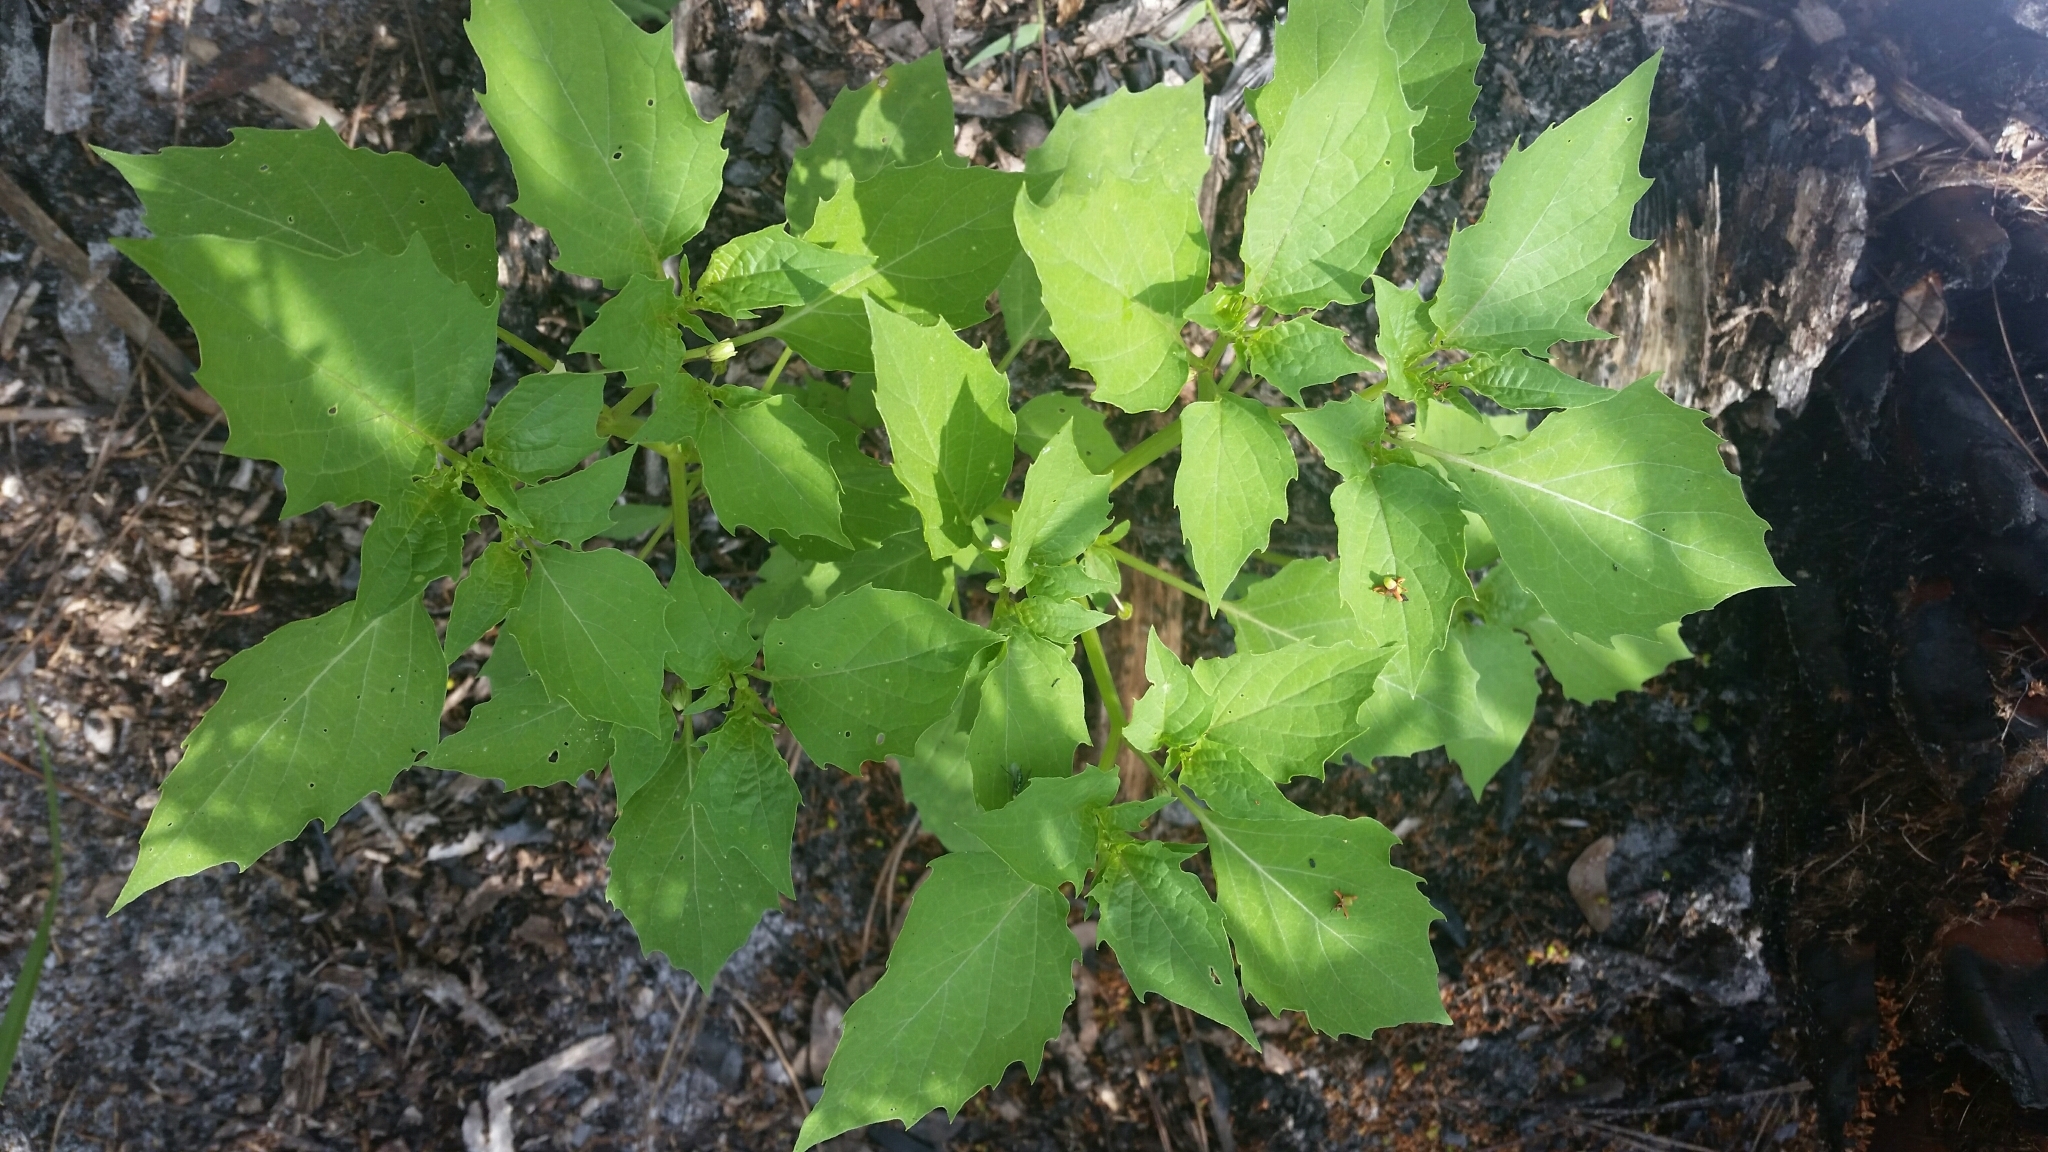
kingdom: Plantae
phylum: Tracheophyta
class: Magnoliopsida
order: Solanales
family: Solanaceae
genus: Physalis
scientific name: Physalis angulata
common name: Angular winter-cherry
